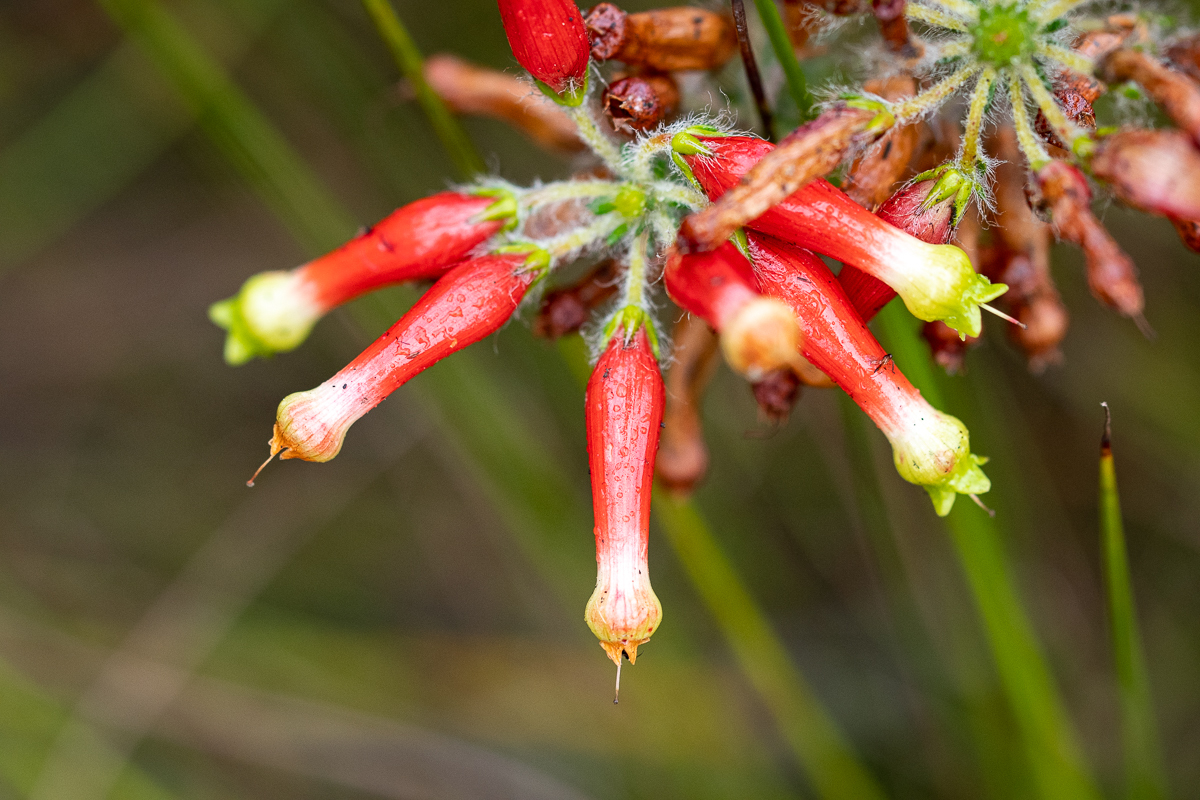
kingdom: Plantae
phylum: Tracheophyta
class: Magnoliopsida
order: Ericales
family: Ericaceae
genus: Erica
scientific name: Erica massonii
